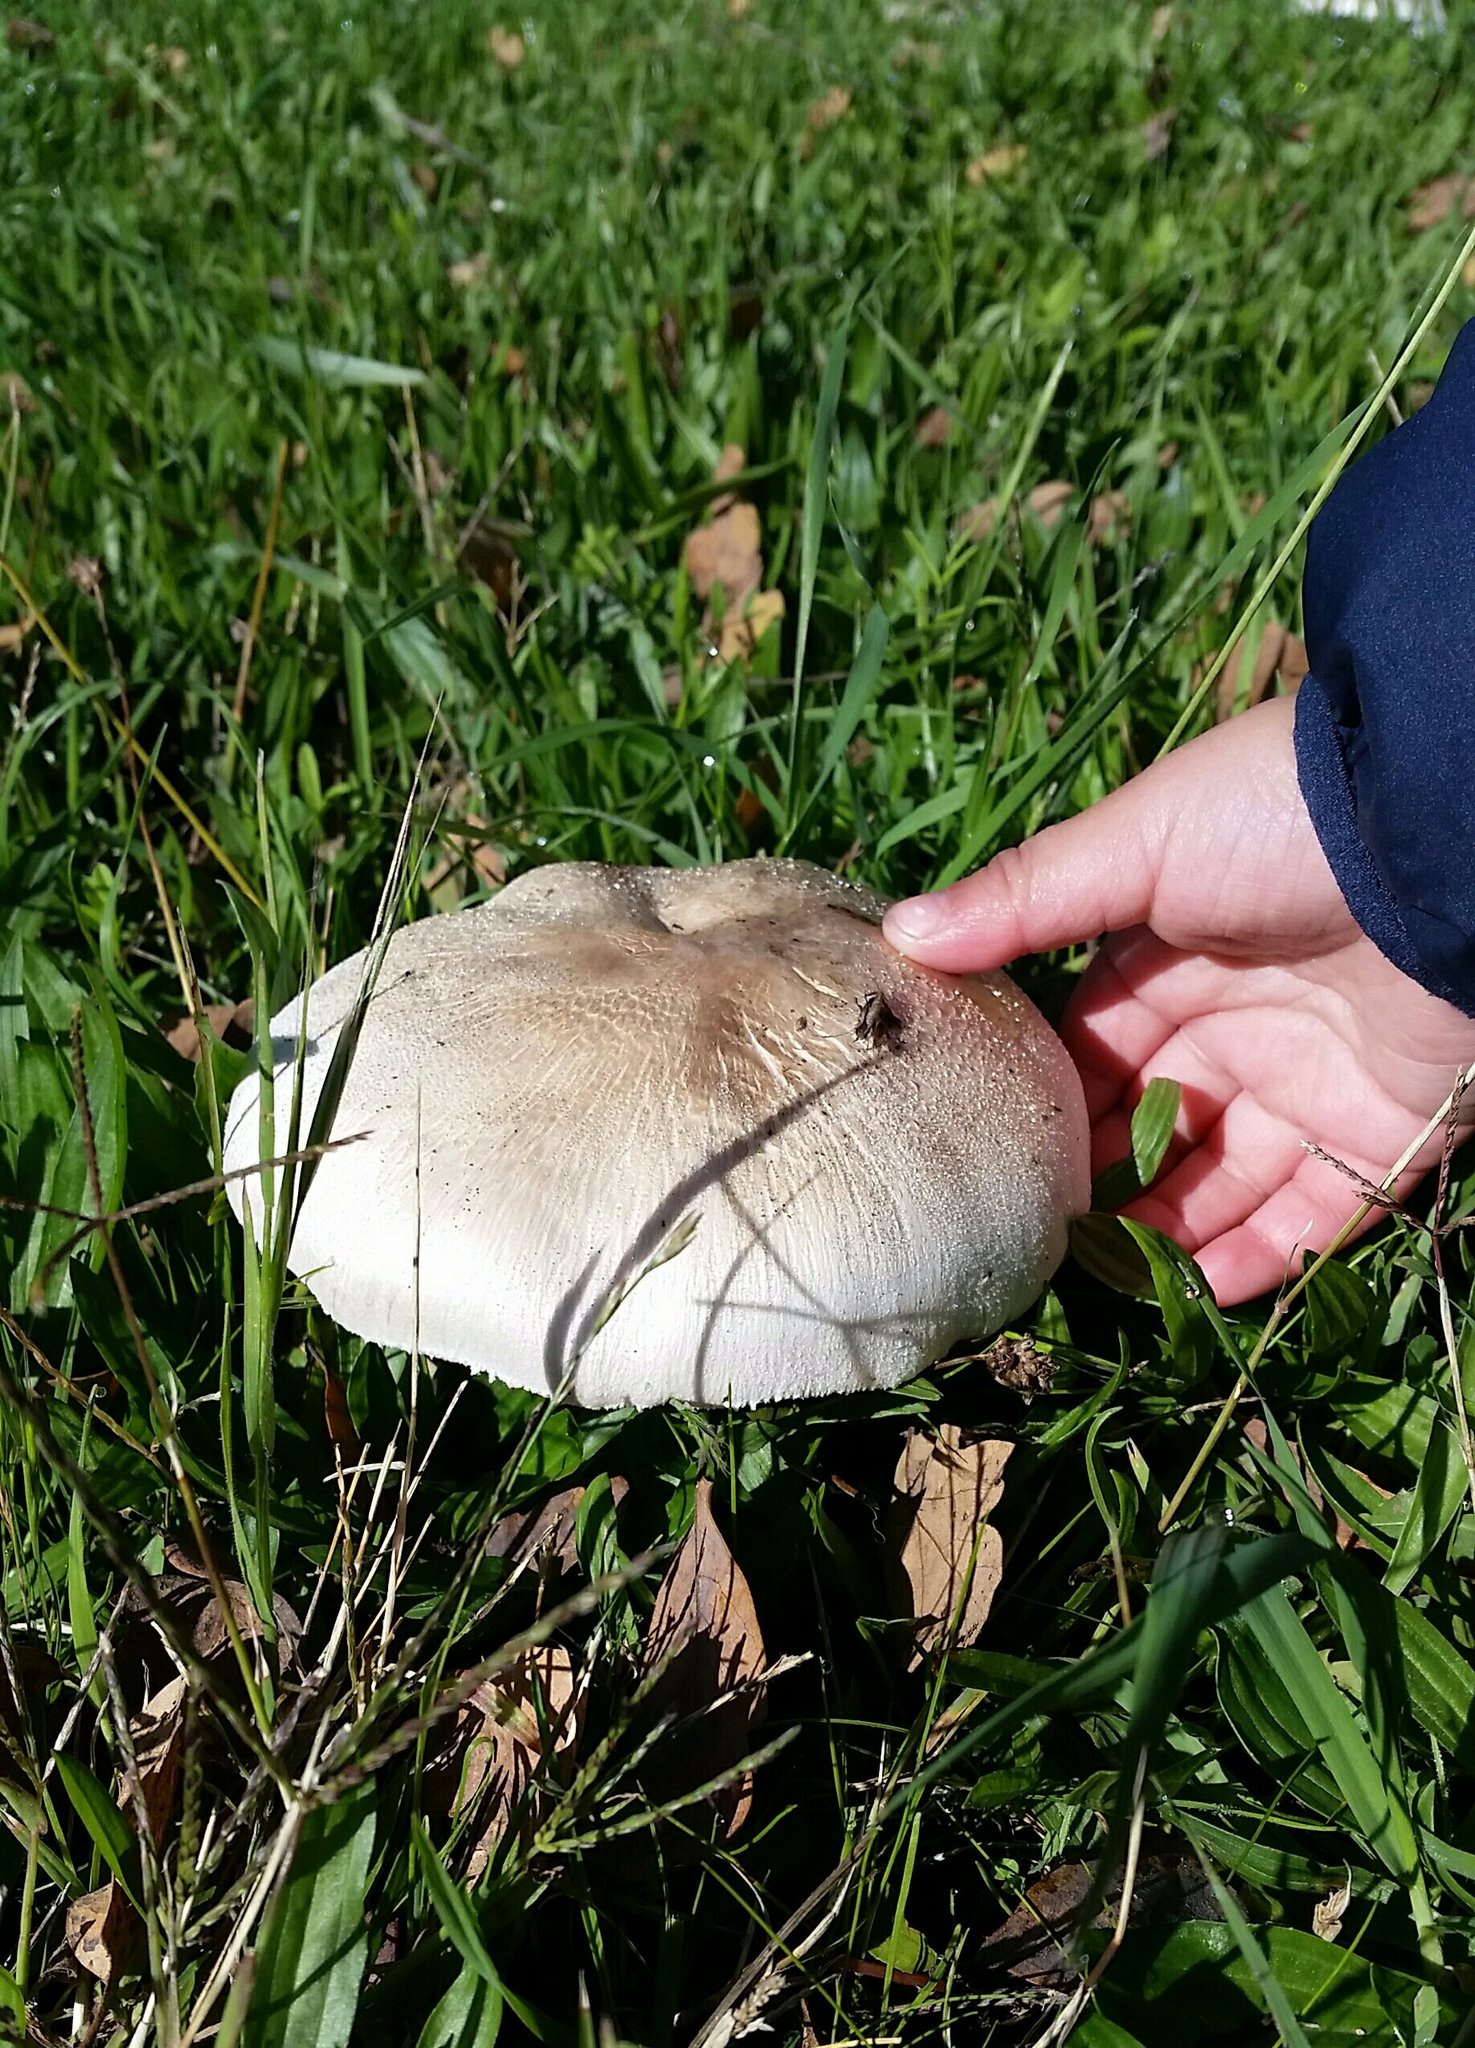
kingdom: Fungi
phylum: Basidiomycota
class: Agaricomycetes
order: Agaricales
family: Agaricaceae
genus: Agaricus
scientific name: Agaricus xanthodermus
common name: Yellow stainer
